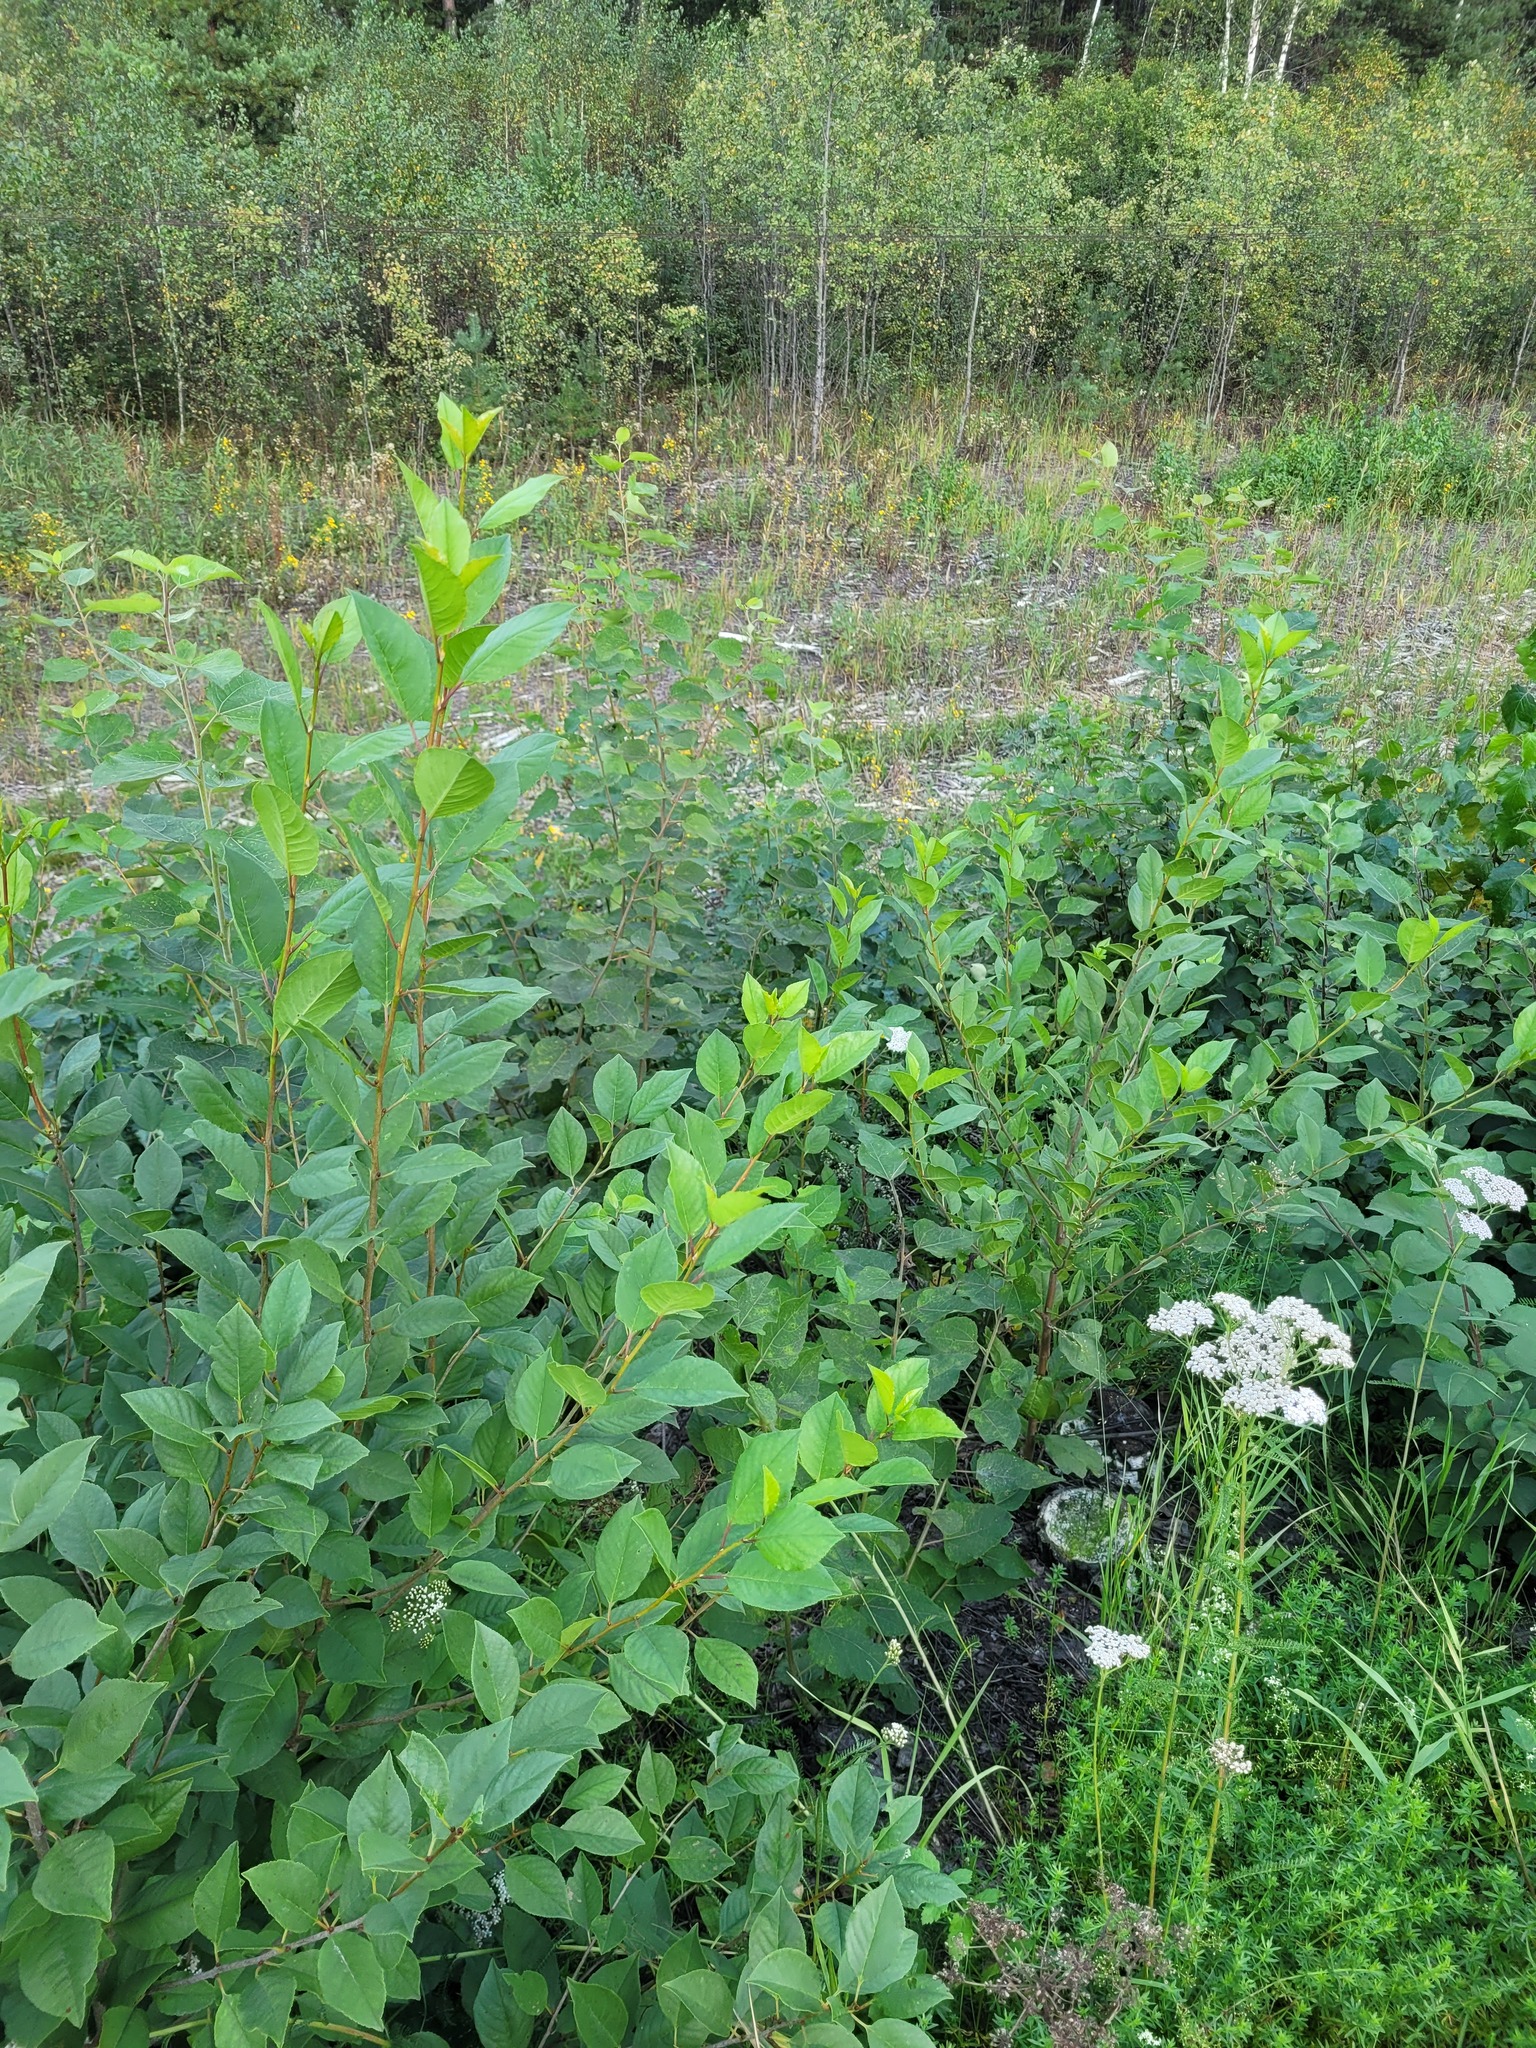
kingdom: Plantae
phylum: Tracheophyta
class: Magnoliopsida
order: Rosales
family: Rosaceae
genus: Prunus
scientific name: Prunus cerasus
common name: Morello cherry
